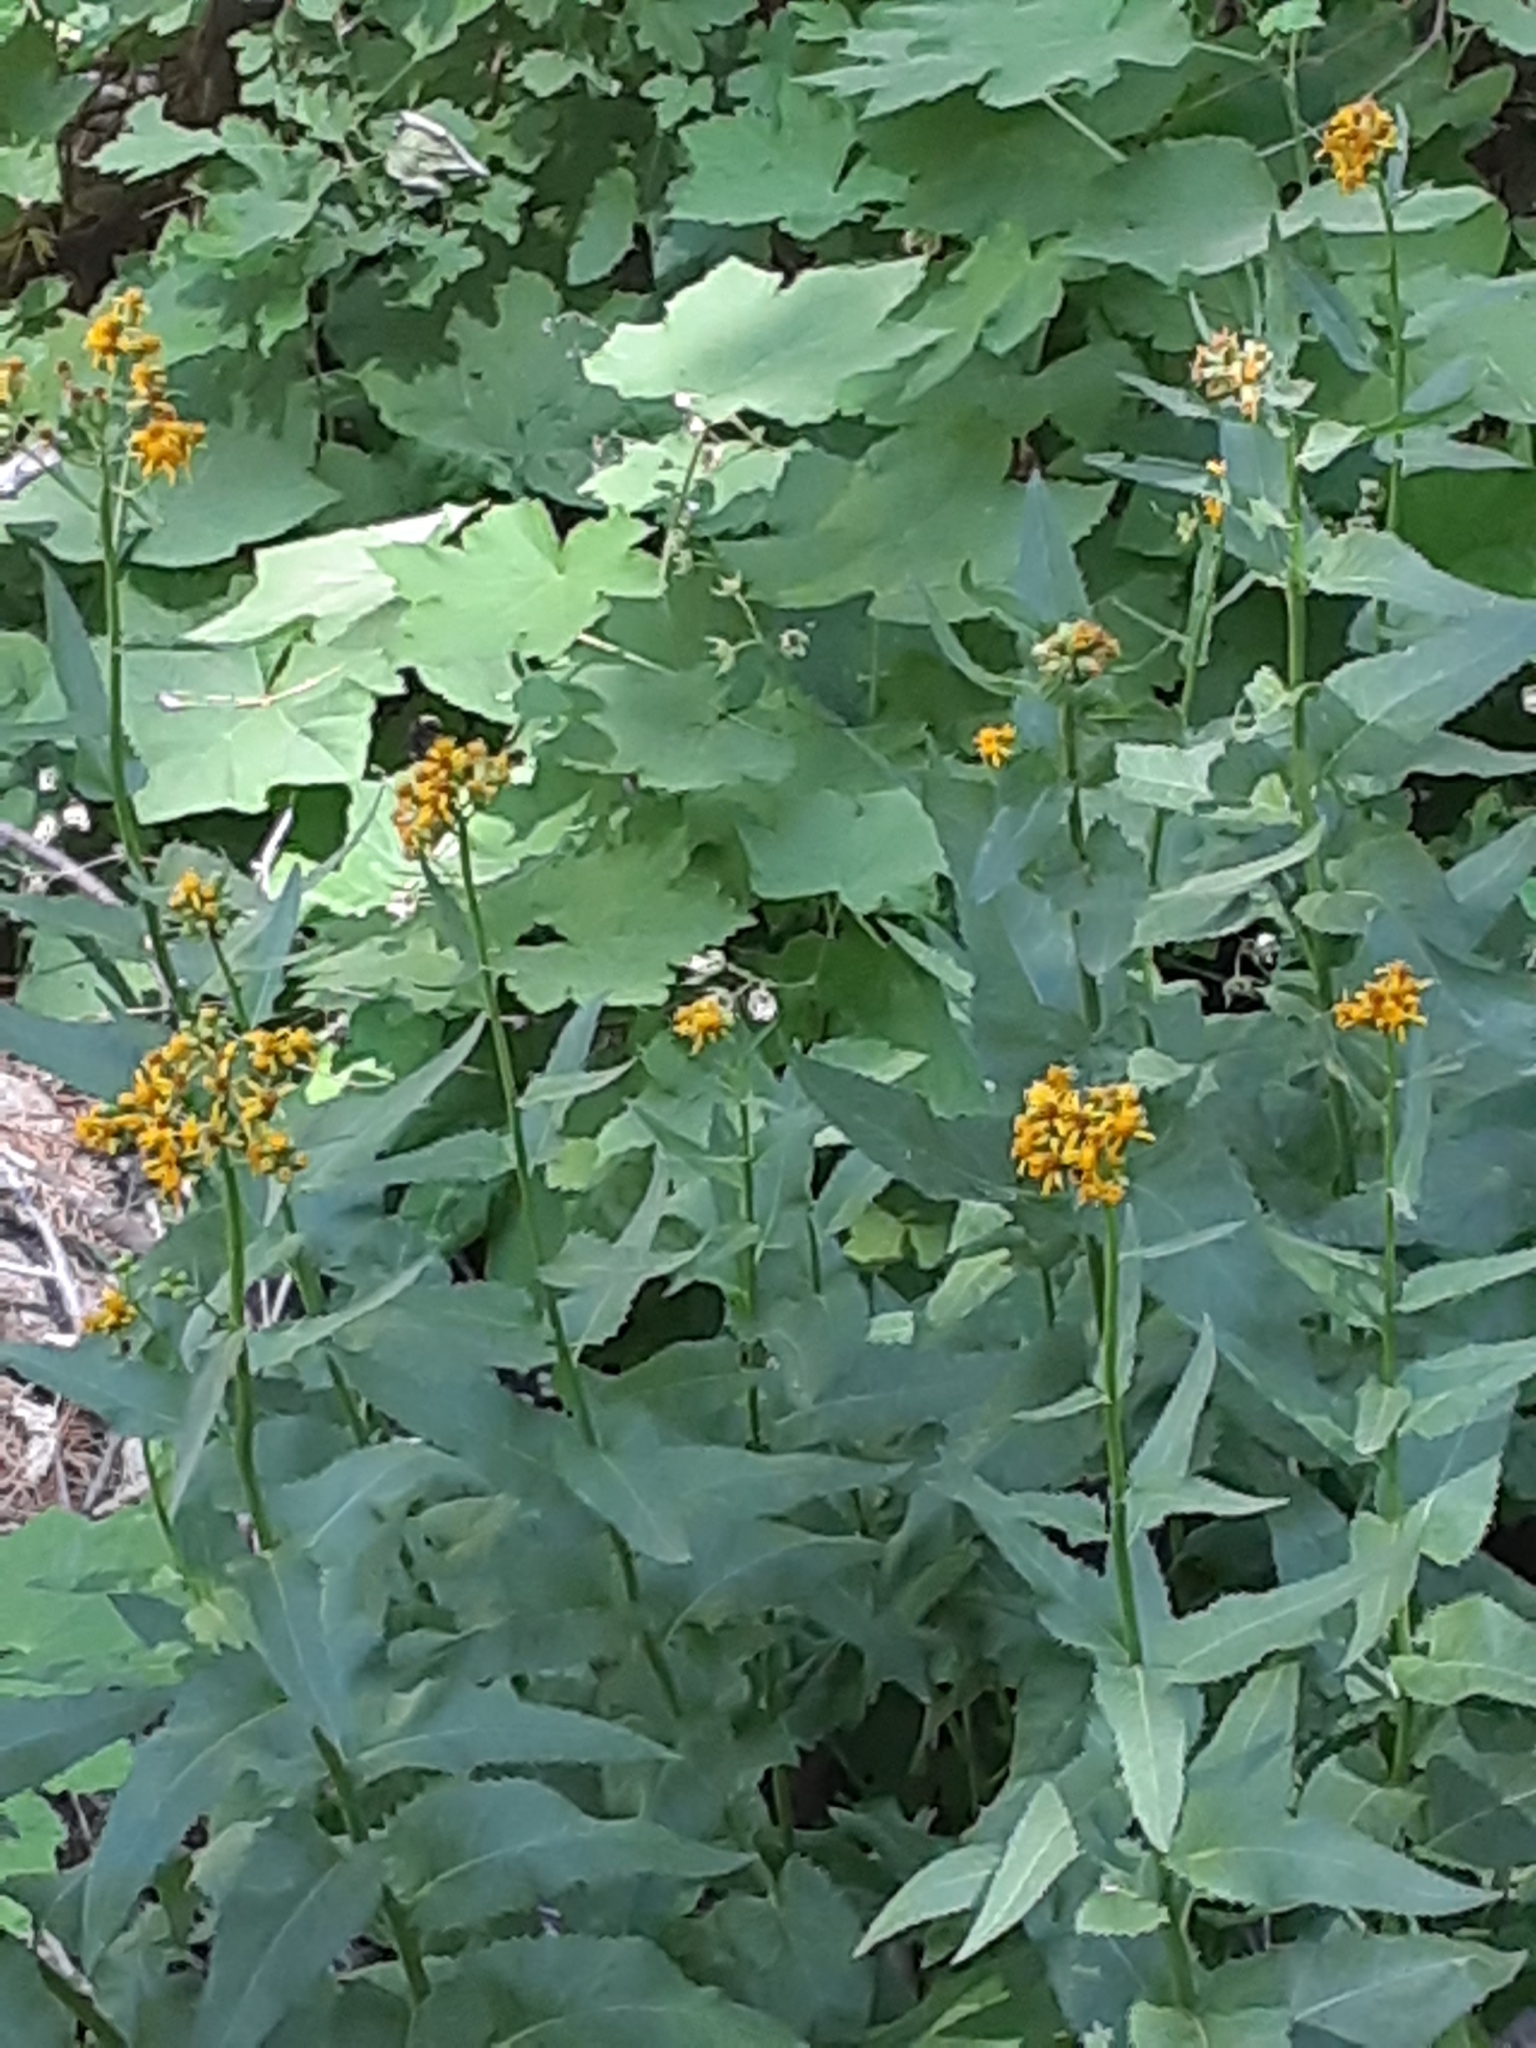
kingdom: Plantae
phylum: Tracheophyta
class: Magnoliopsida
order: Asterales
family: Asteraceae
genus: Senecio
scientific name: Senecio triangularis
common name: Arrowleaf butterweed
